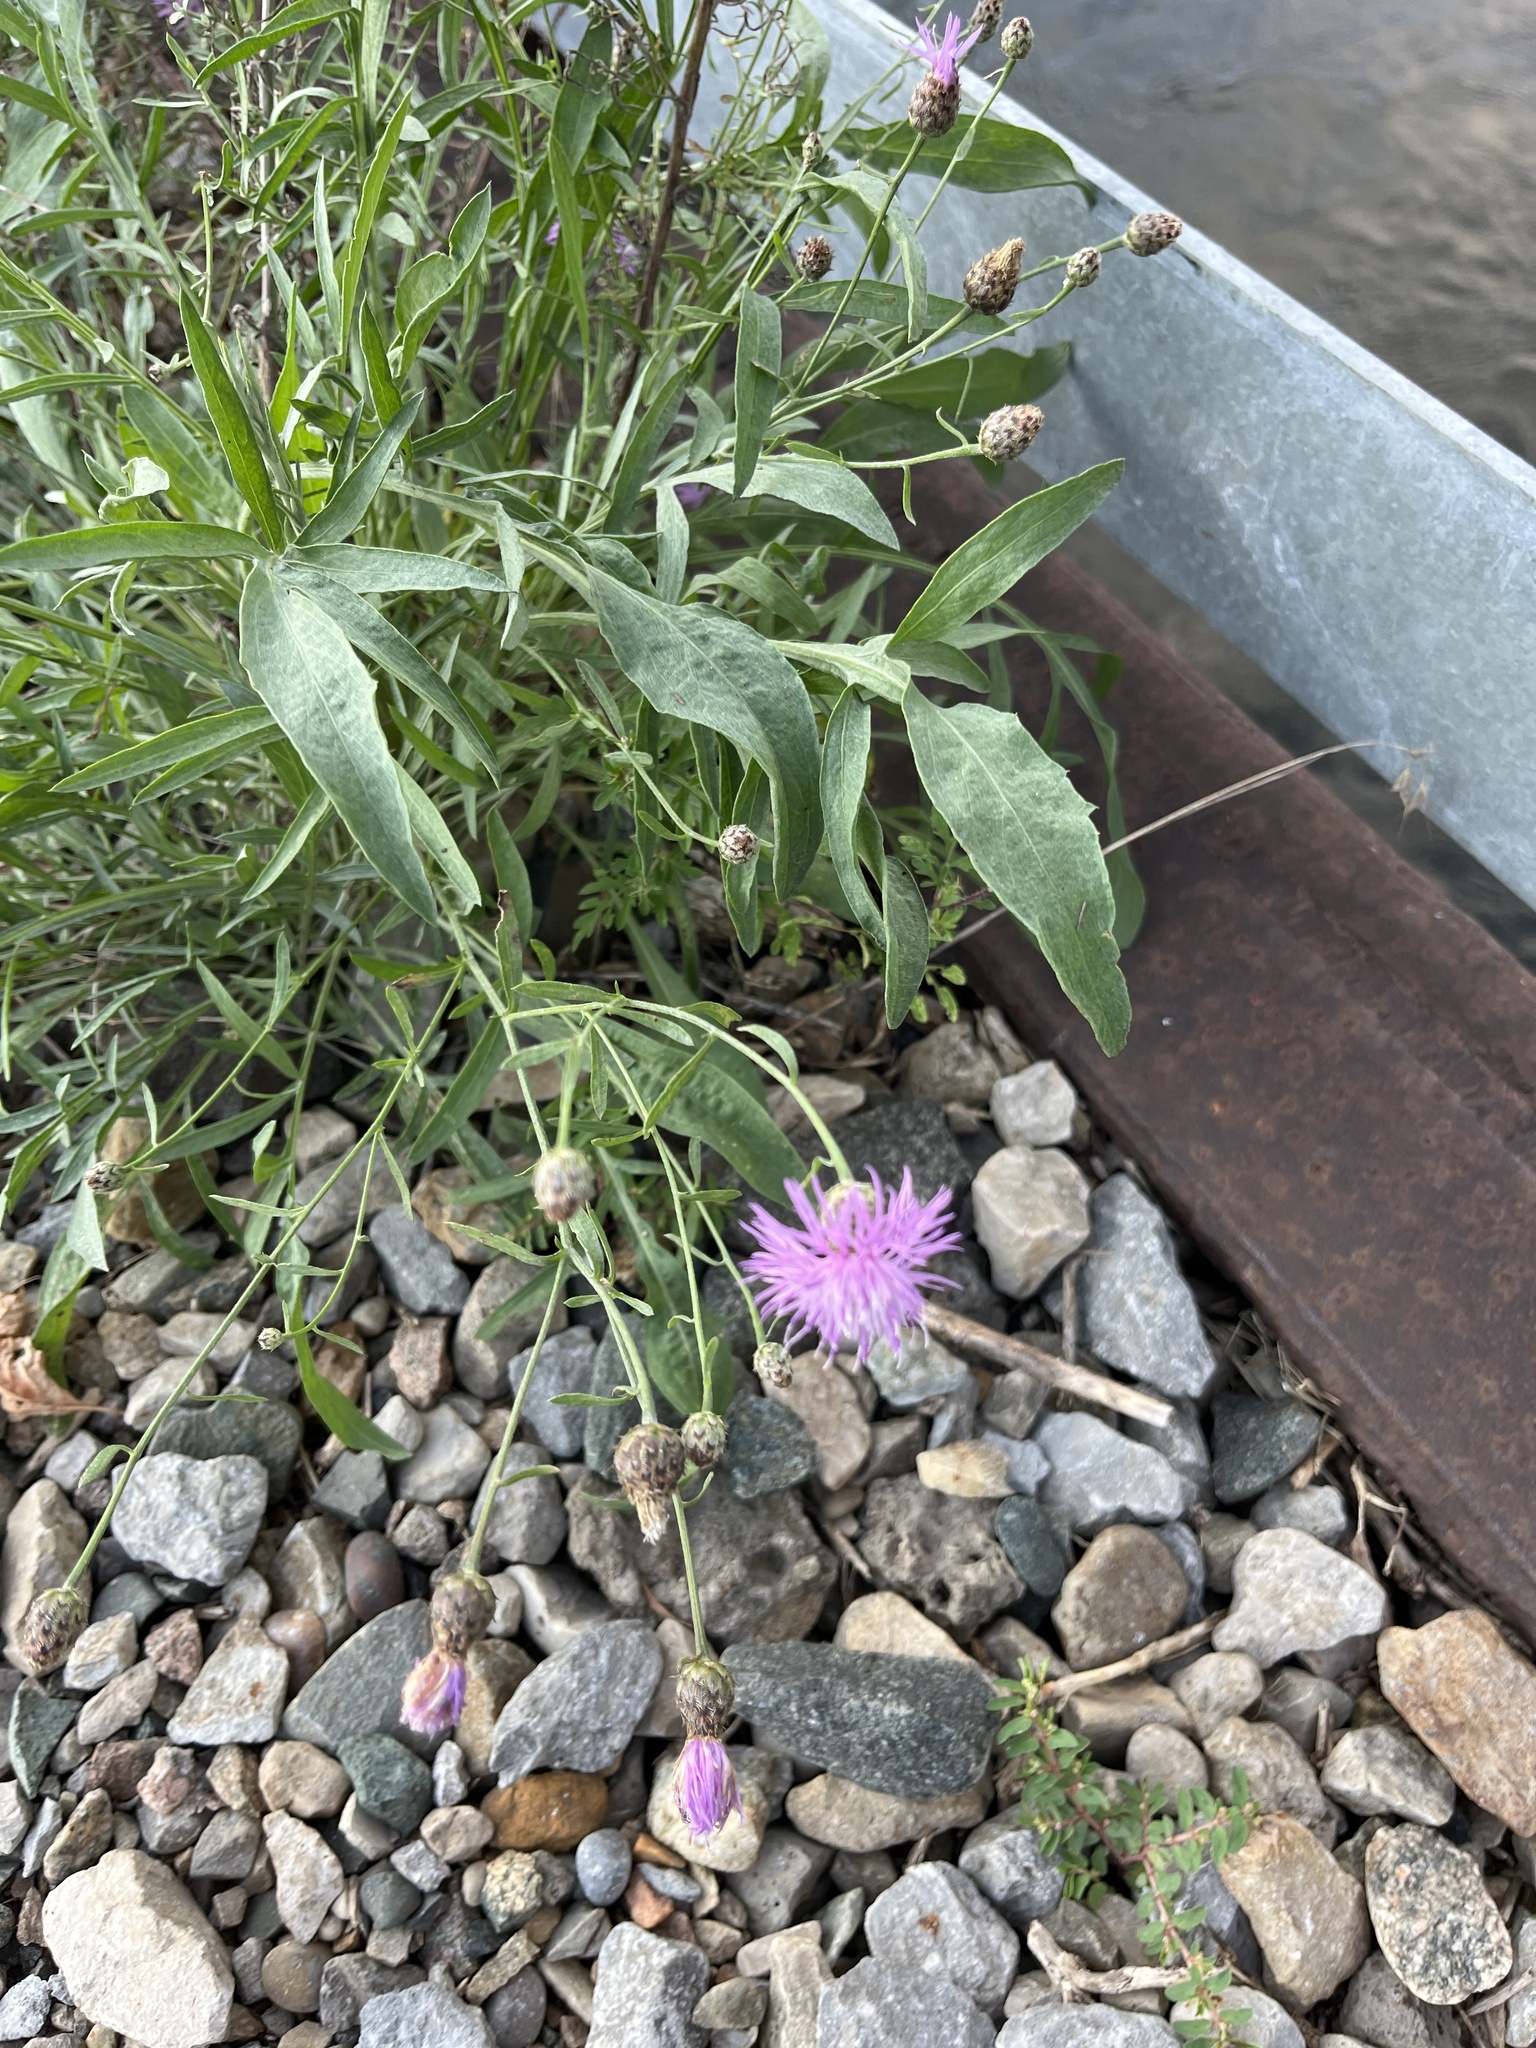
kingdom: Plantae
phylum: Tracheophyta
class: Magnoliopsida
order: Asterales
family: Asteraceae
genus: Centaurea
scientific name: Centaurea stoebe
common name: Spotted knapweed
